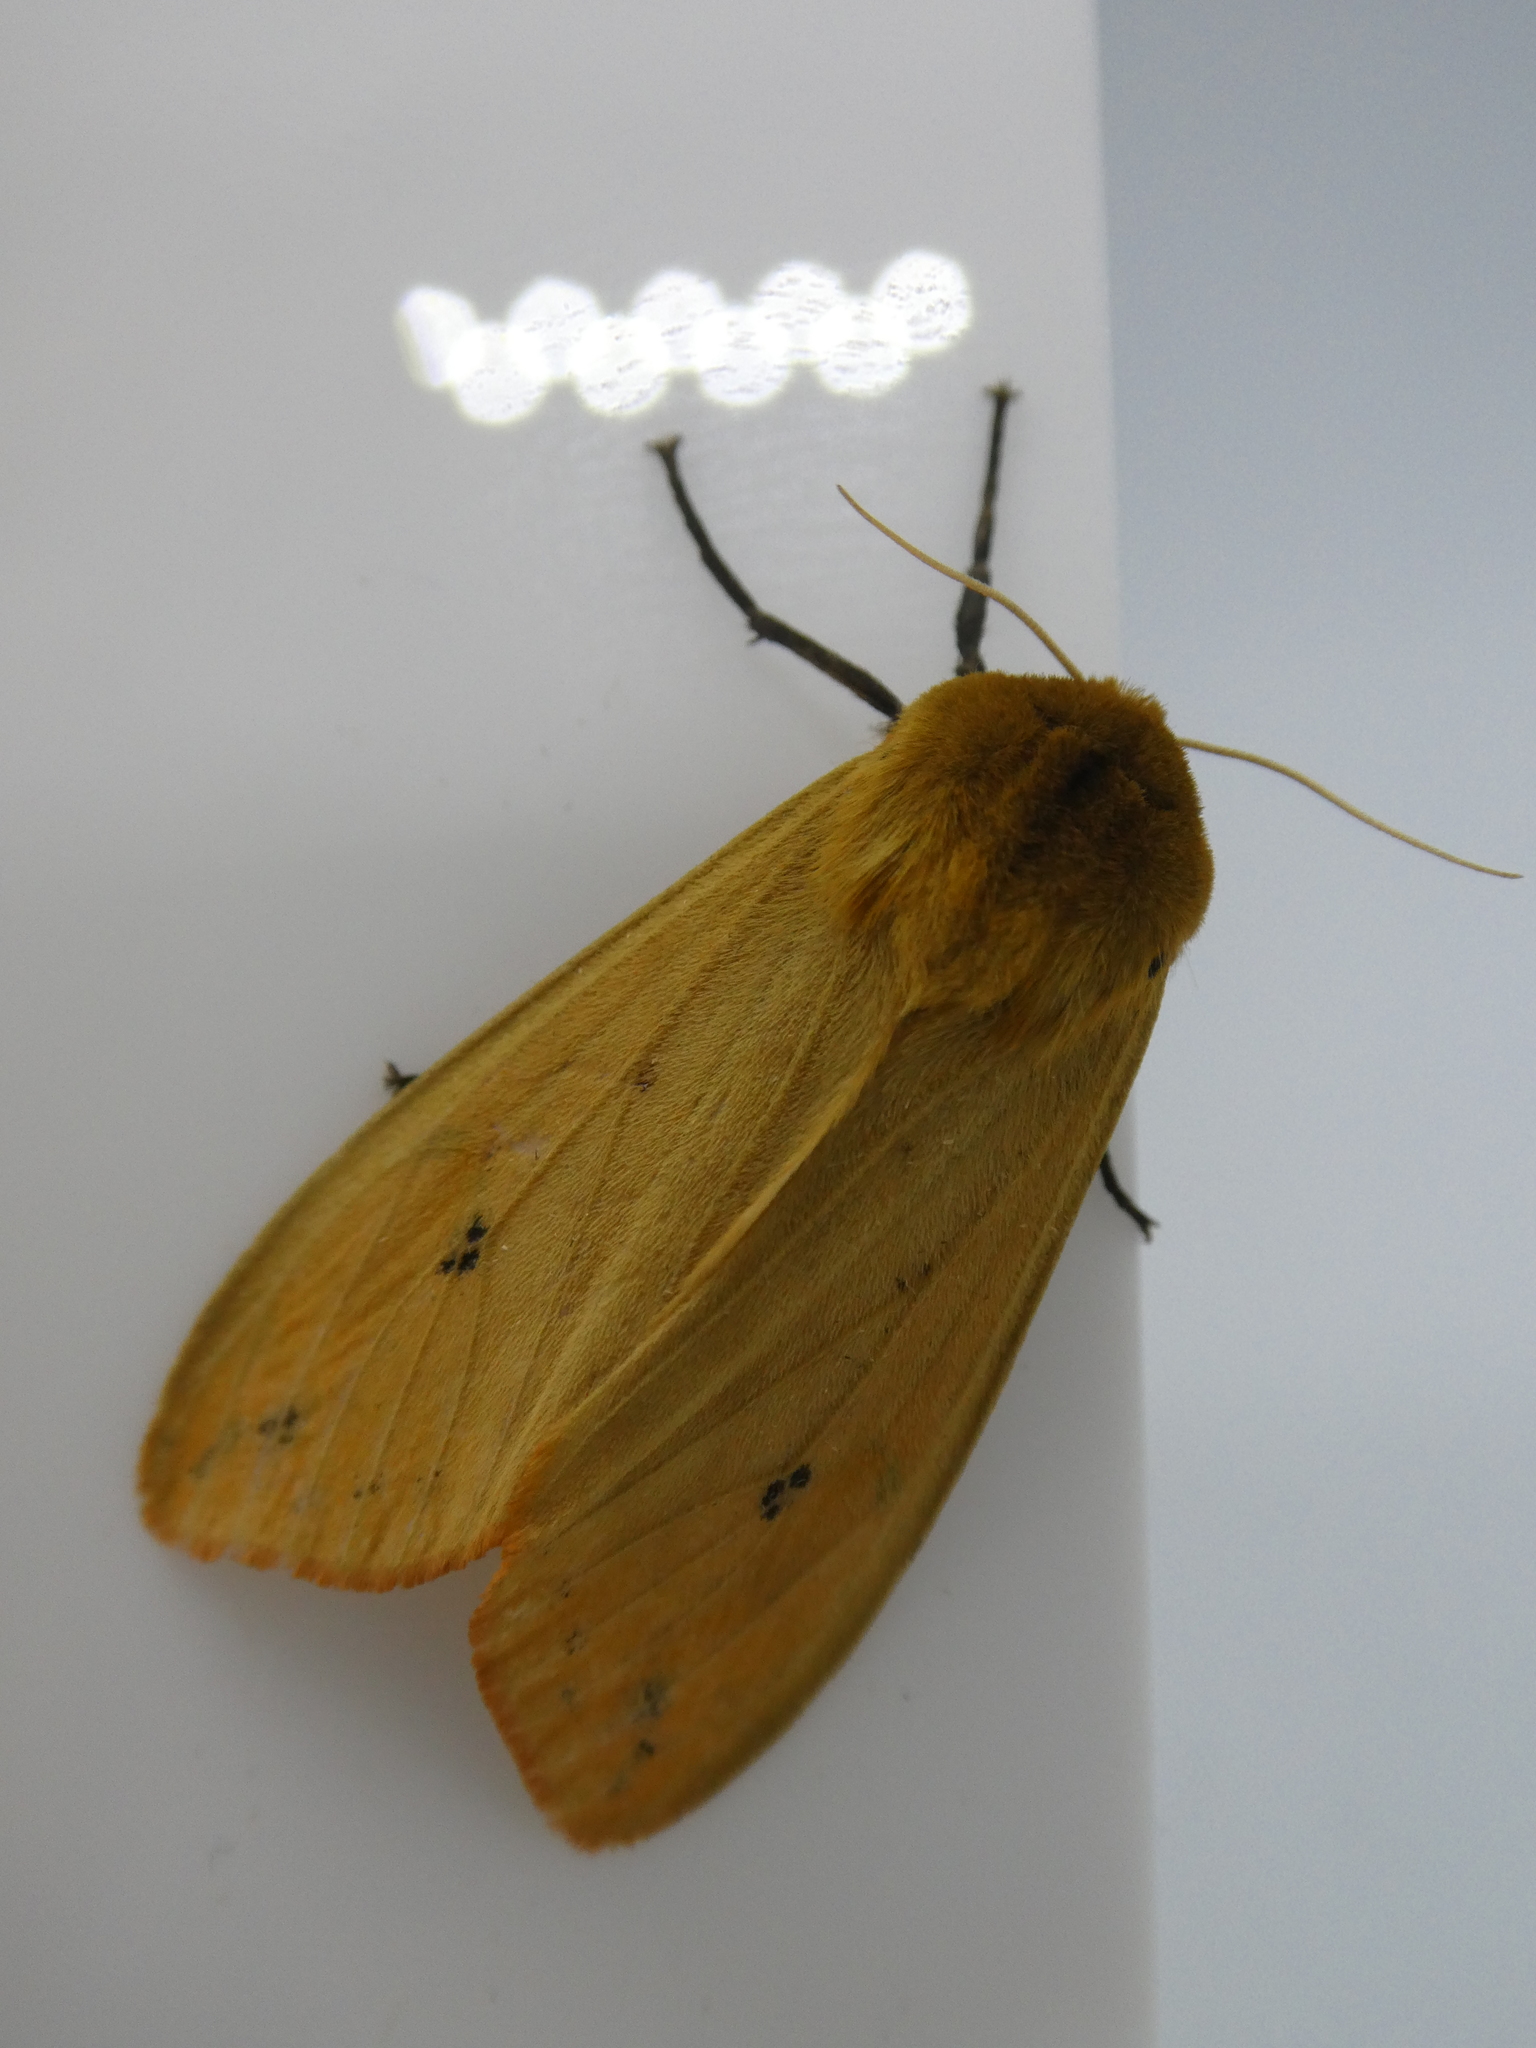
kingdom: Animalia
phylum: Arthropoda
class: Insecta
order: Lepidoptera
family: Erebidae
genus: Pyrrharctia
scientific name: Pyrrharctia isabella
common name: Isabella tiger moth
